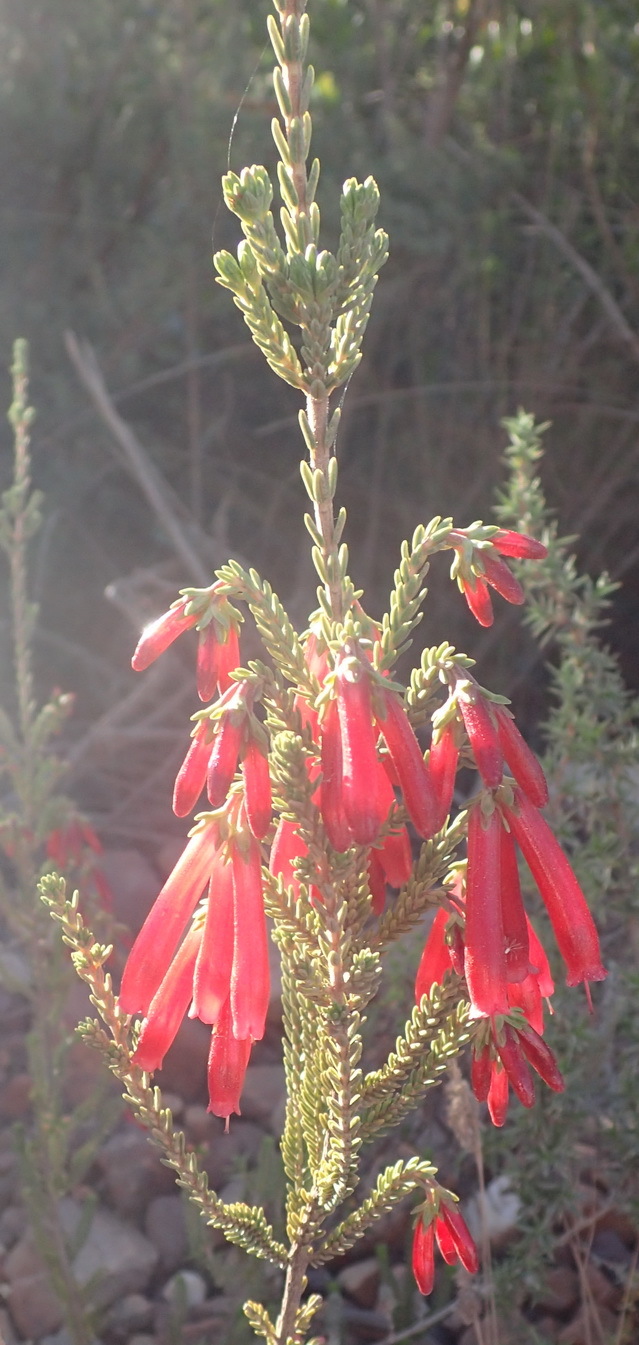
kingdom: Plantae
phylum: Tracheophyta
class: Magnoliopsida
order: Ericales
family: Ericaceae
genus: Erica
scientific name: Erica diaphana
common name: Heath
